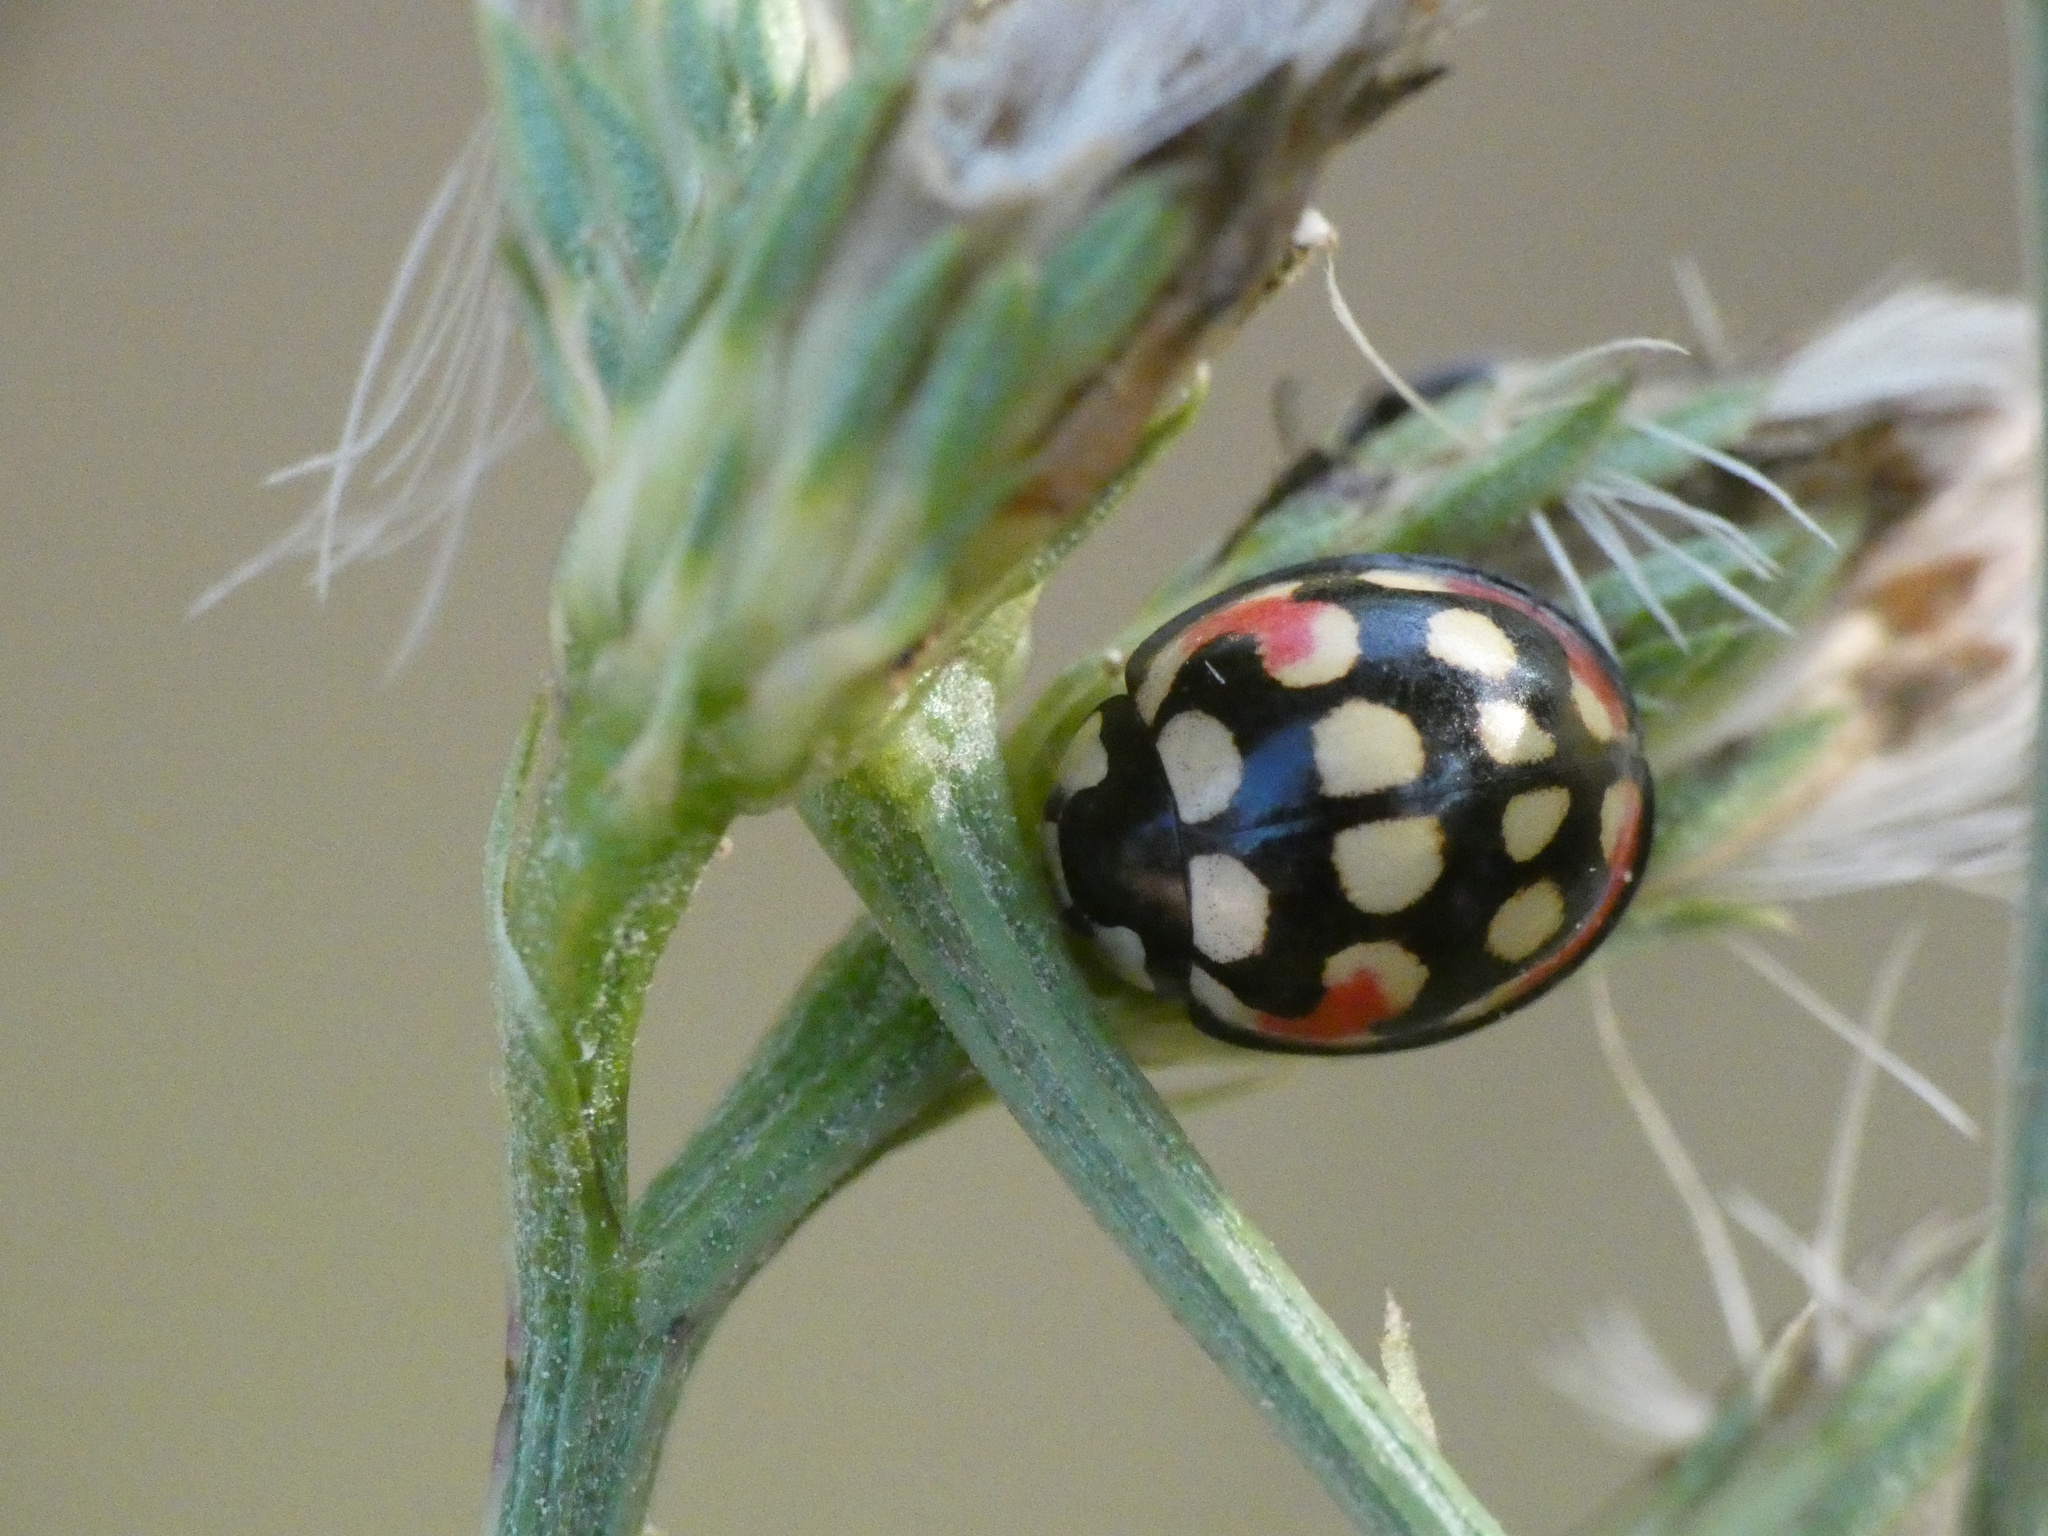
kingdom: Animalia
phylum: Arthropoda
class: Insecta
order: Coleoptera
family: Coccinellidae
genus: Cheilomenes
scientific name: Cheilomenes sulphurea
